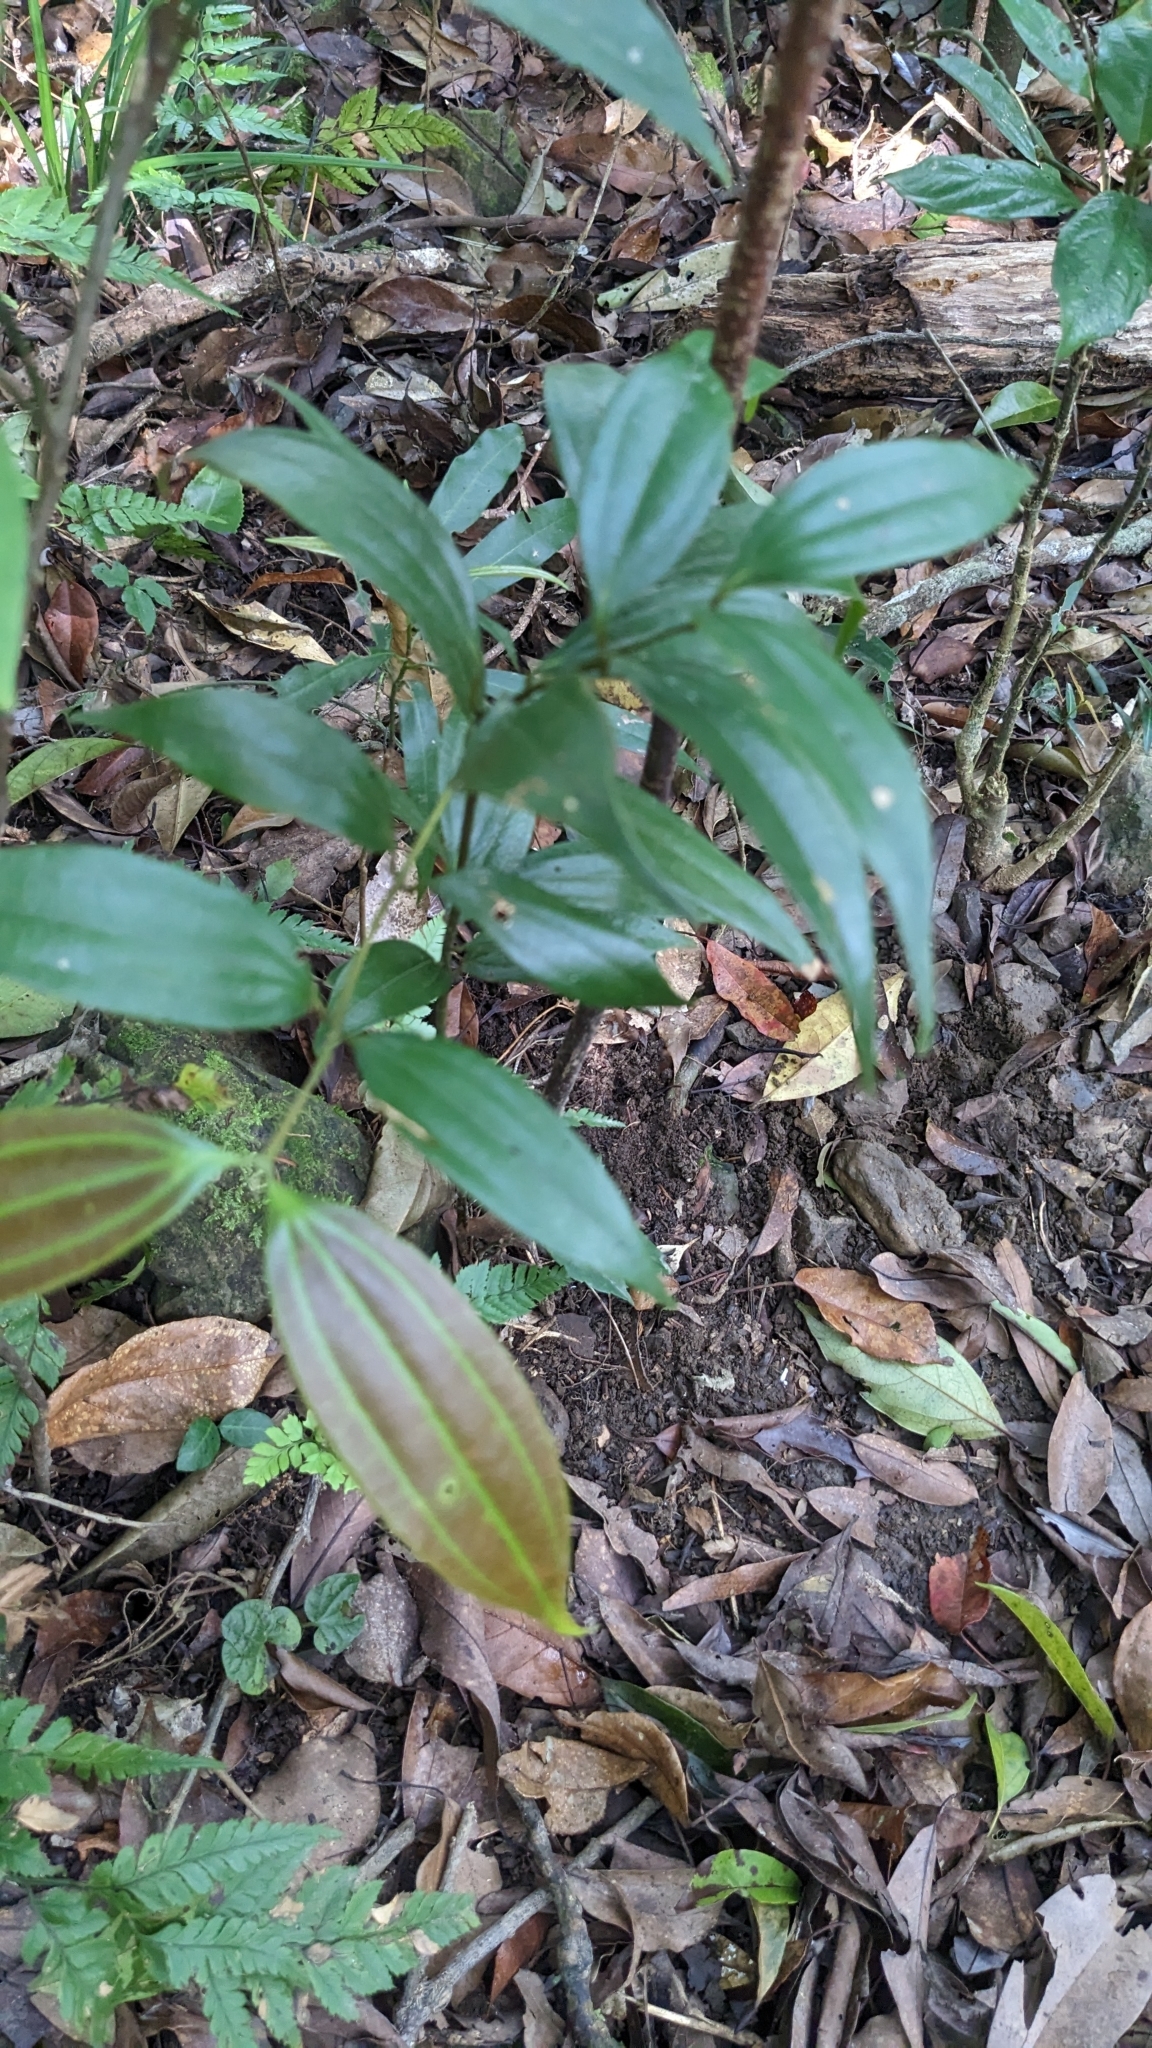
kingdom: Plantae
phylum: Tracheophyta
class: Magnoliopsida
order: Laurales
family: Lauraceae
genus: Cinnamomum
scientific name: Cinnamomum subavenium
